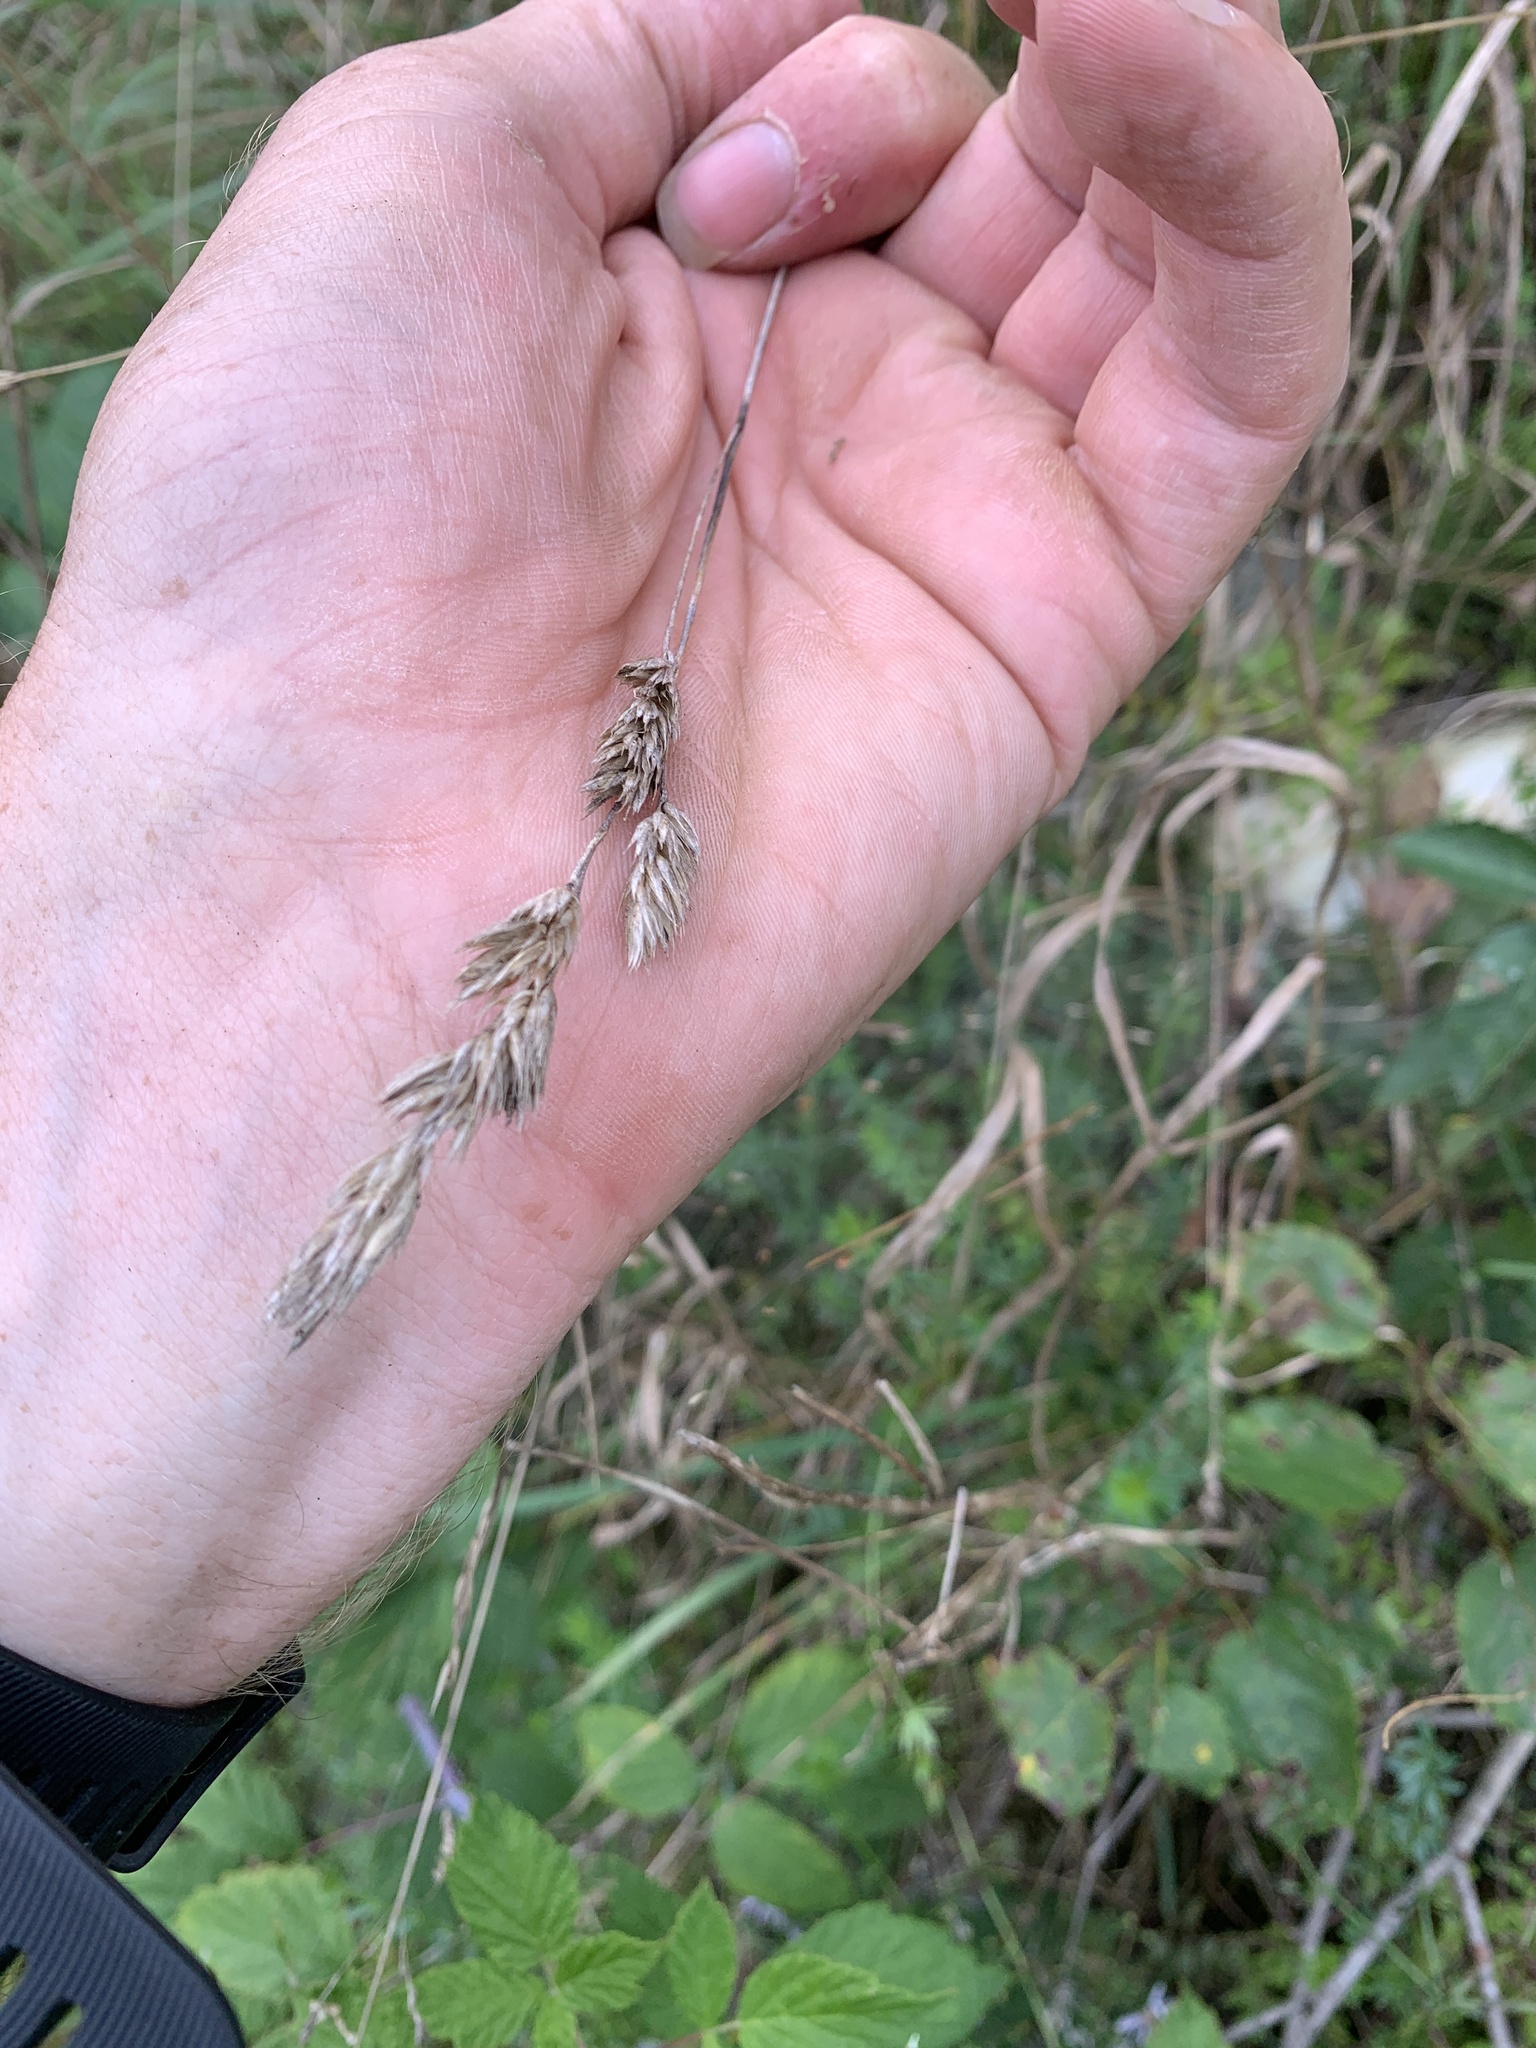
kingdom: Plantae
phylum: Tracheophyta
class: Liliopsida
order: Poales
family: Poaceae
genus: Dactylis
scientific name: Dactylis glomerata
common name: Orchardgrass
